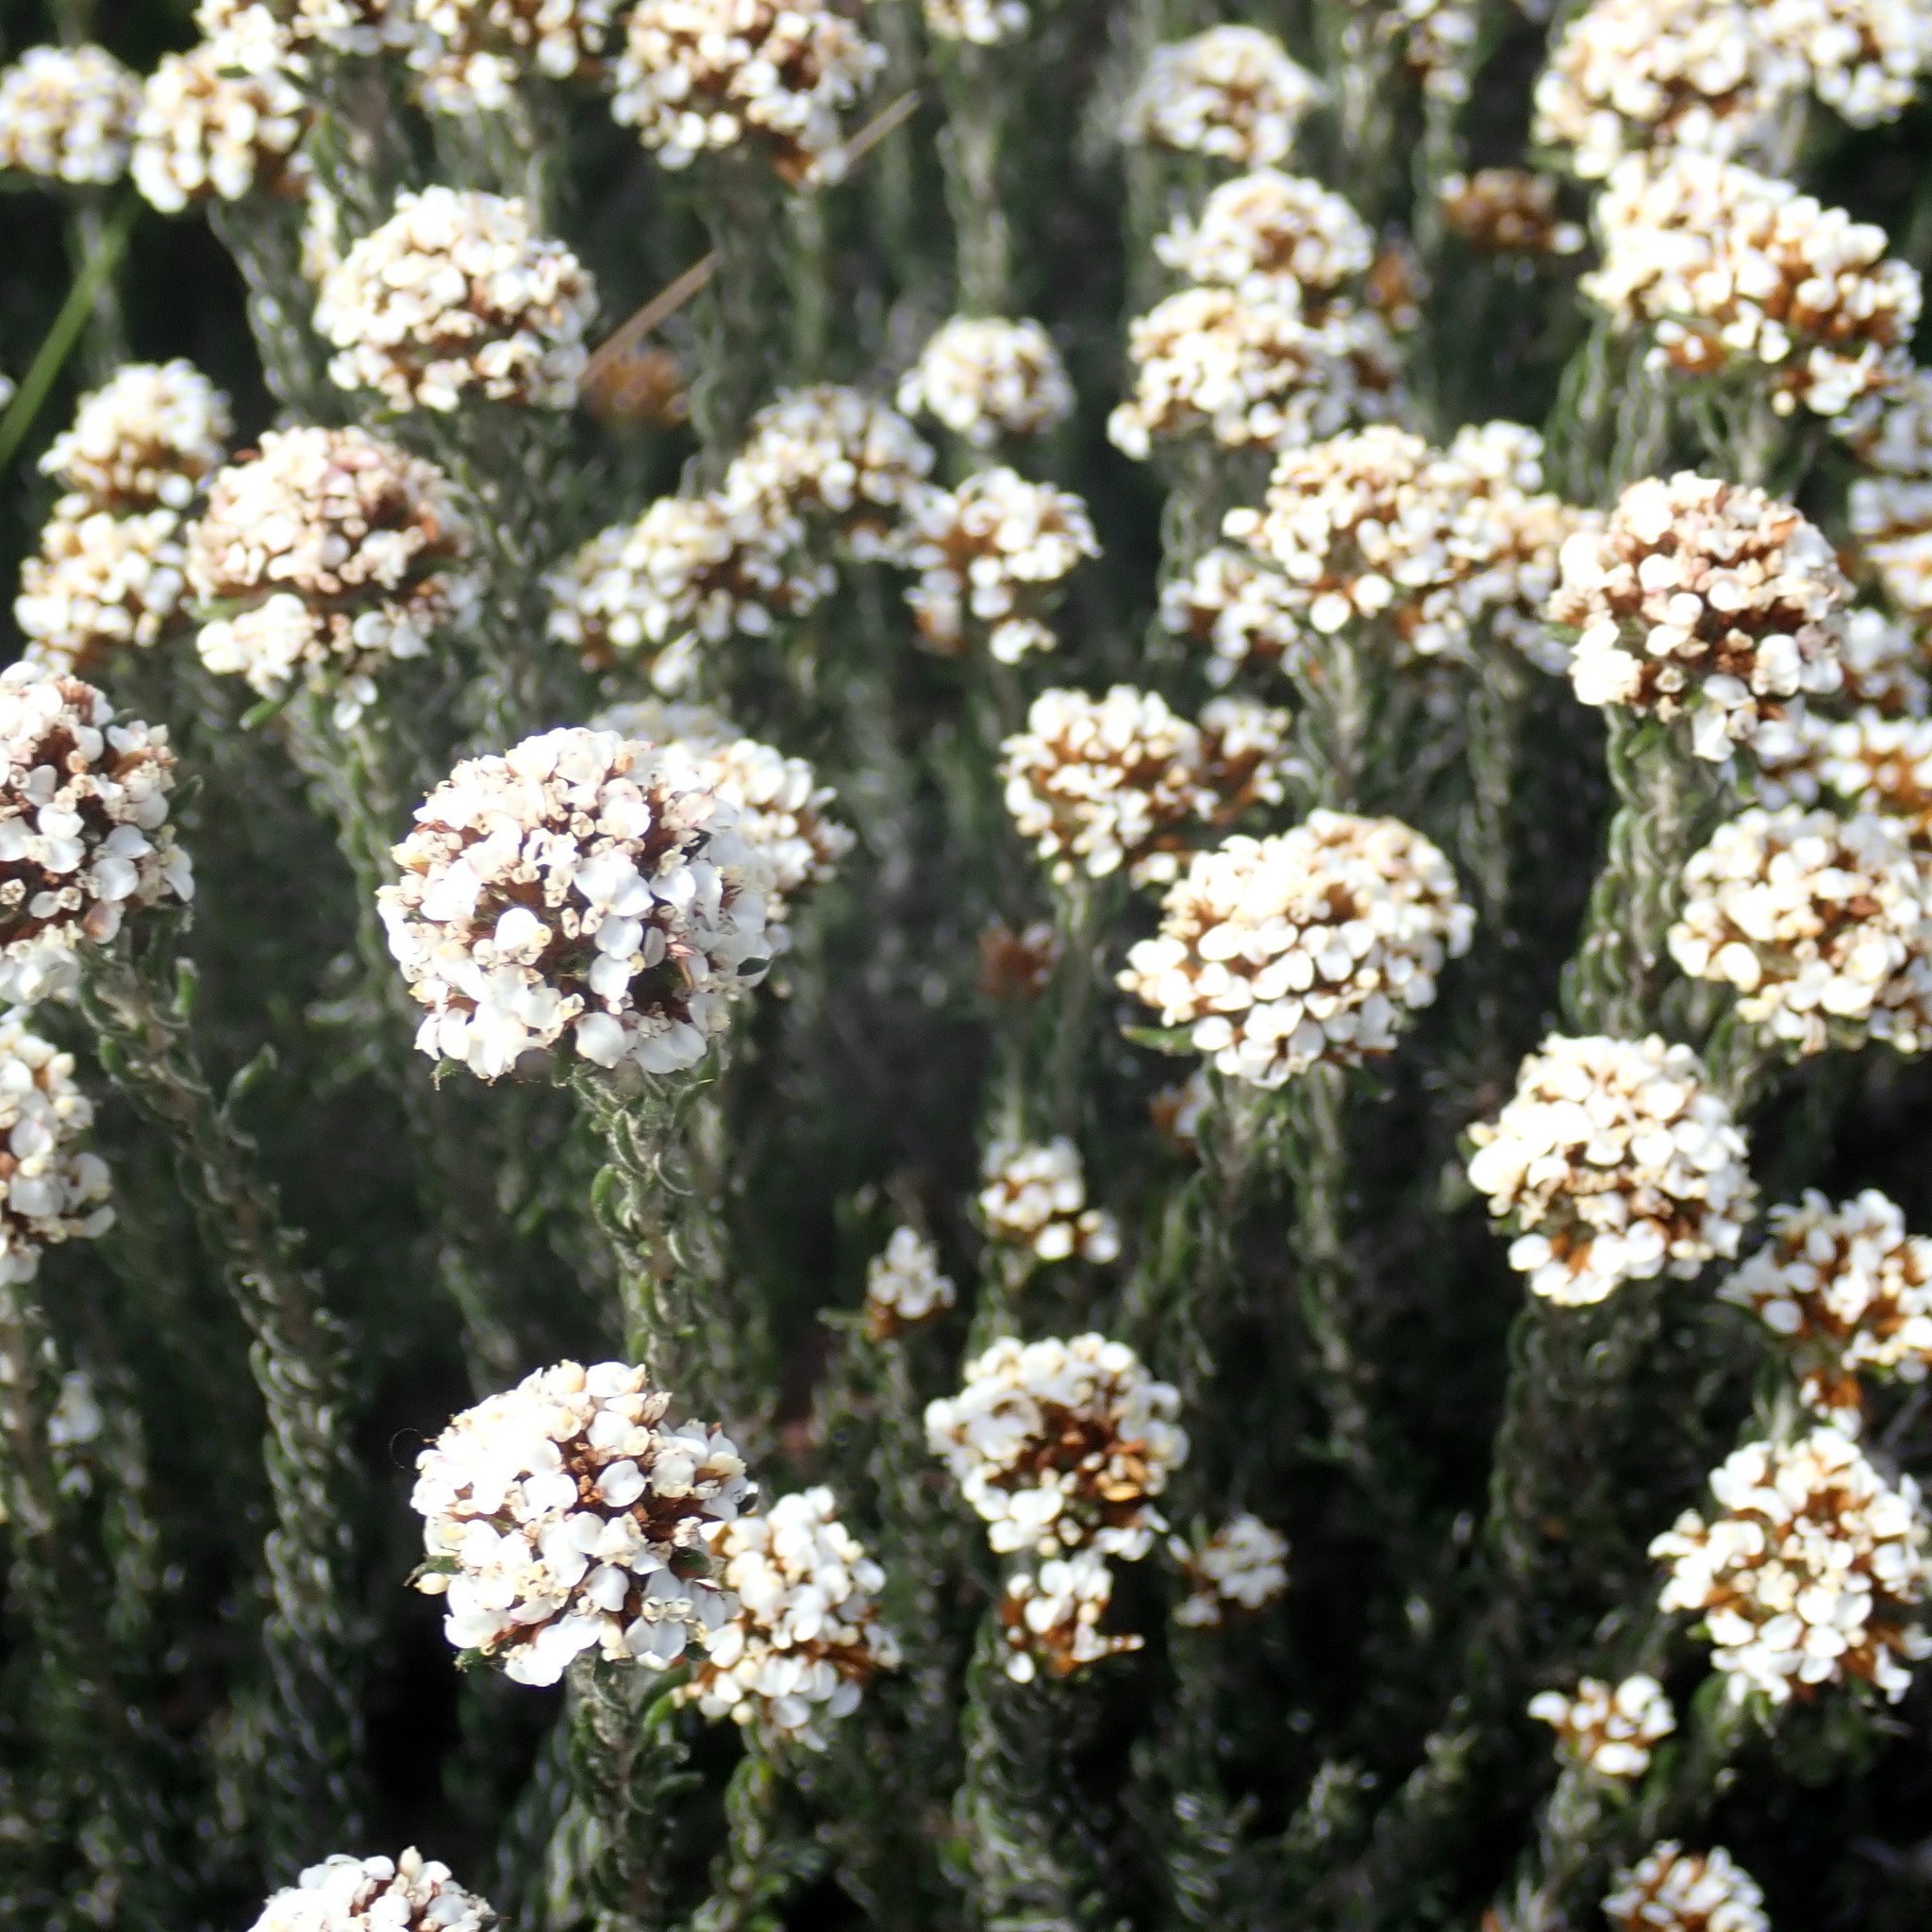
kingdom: Plantae
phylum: Tracheophyta
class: Magnoliopsida
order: Asterales
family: Asteraceae
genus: Disparago
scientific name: Disparago anomala
